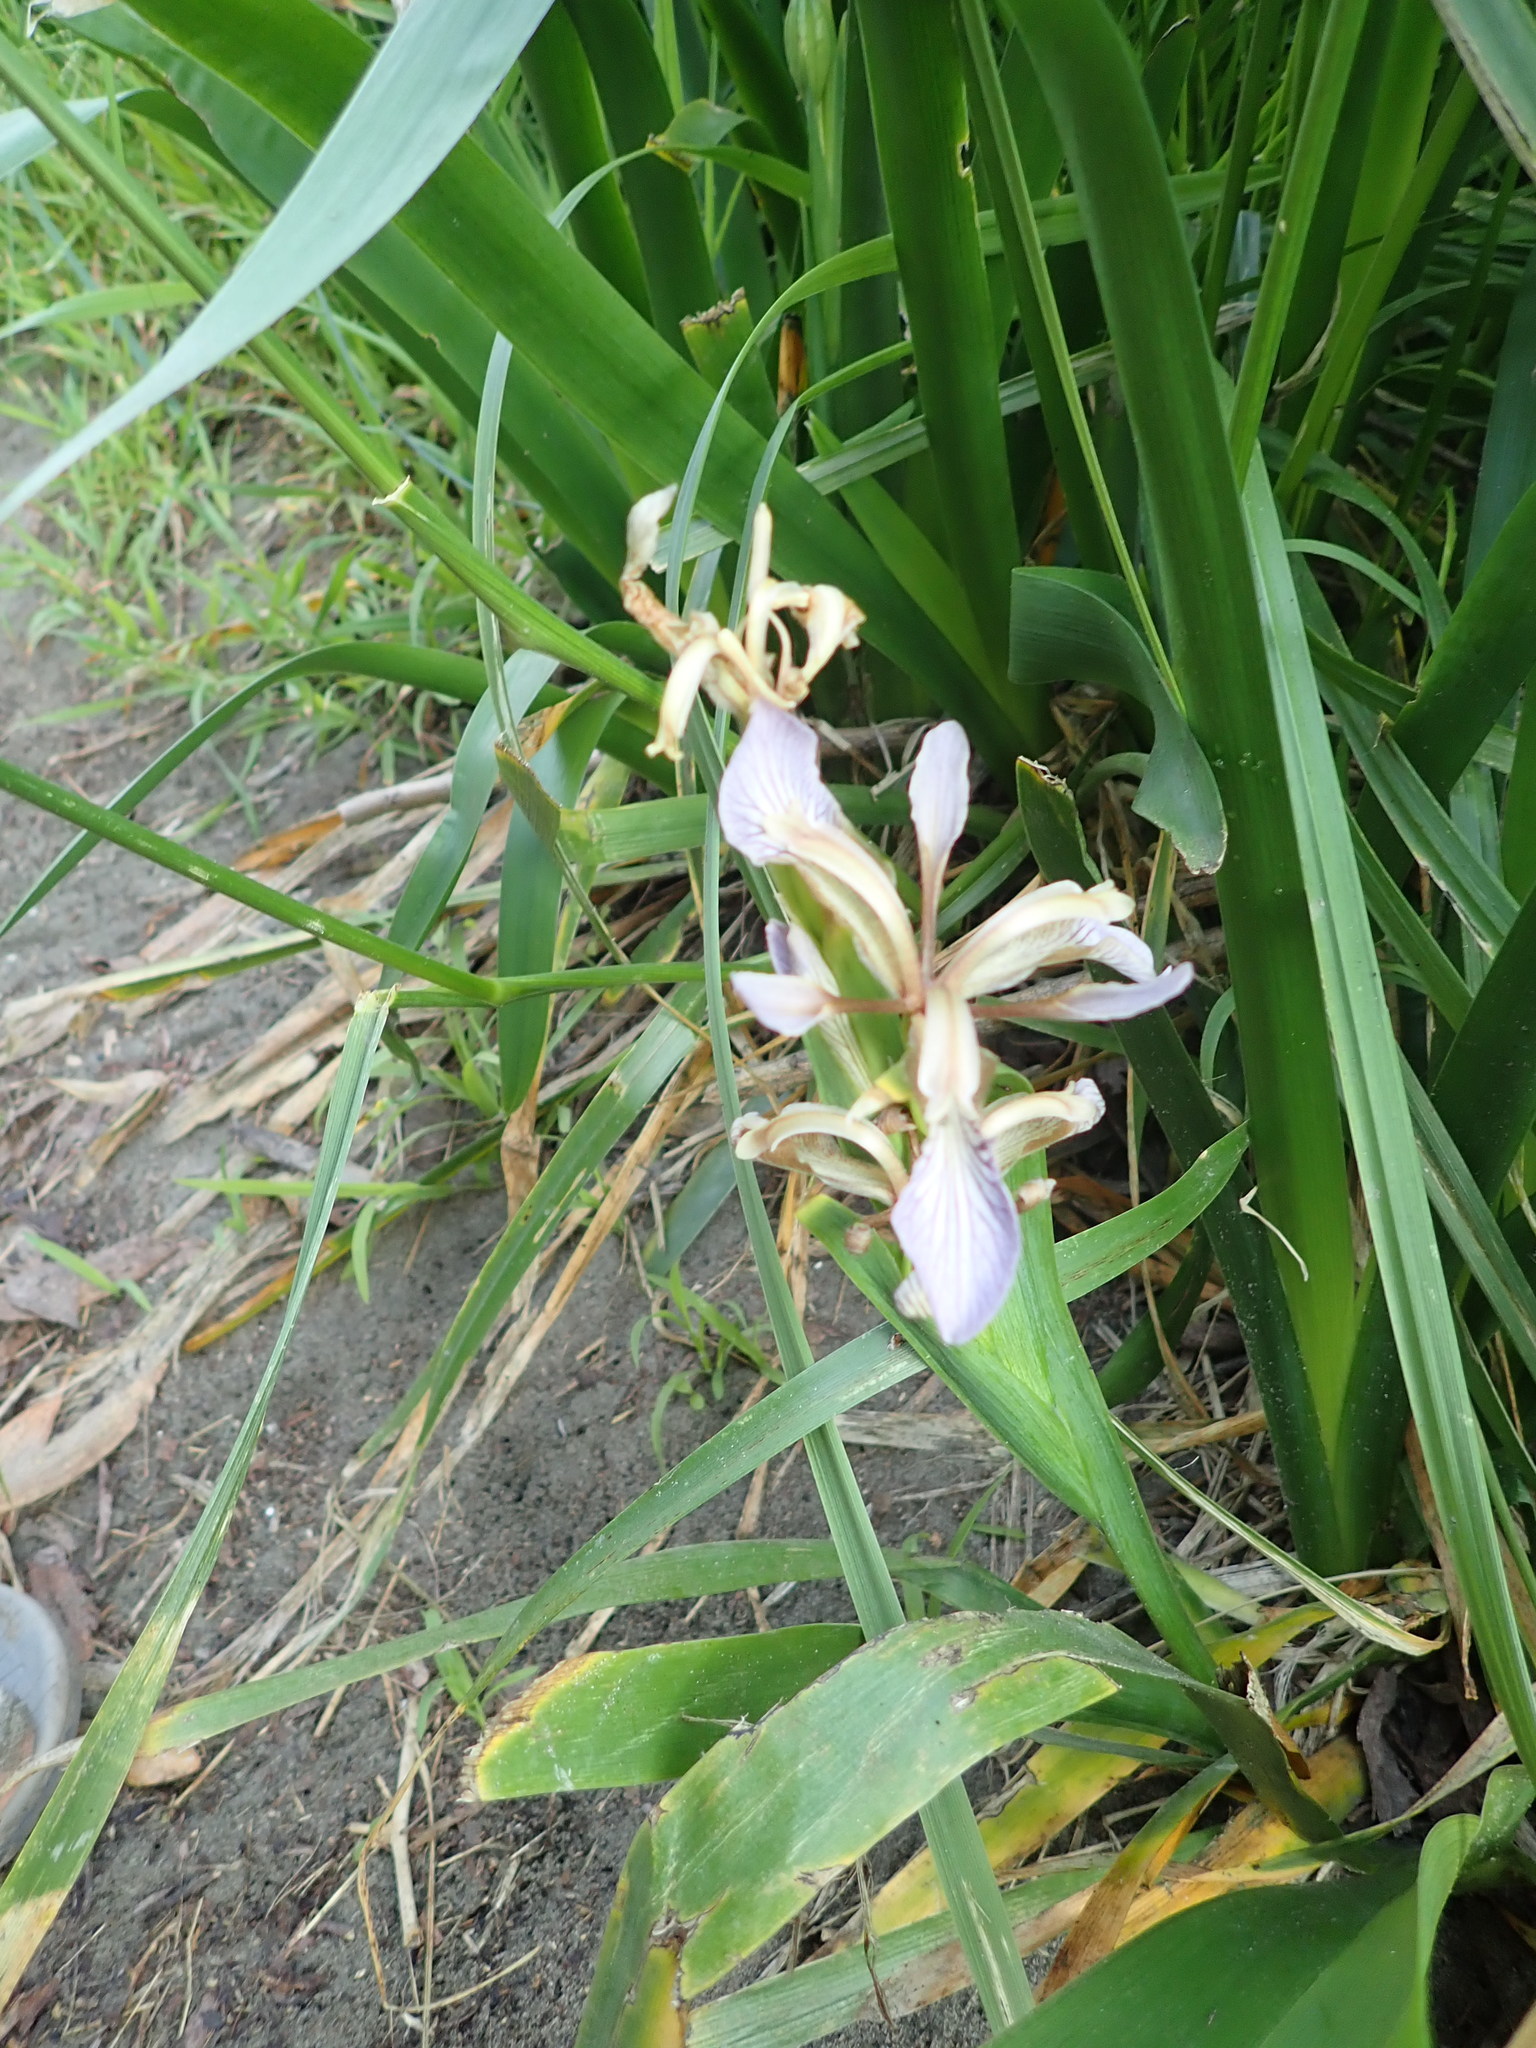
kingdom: Plantae
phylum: Tracheophyta
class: Liliopsida
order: Asparagales
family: Iridaceae
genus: Iris
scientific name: Iris foetidissima
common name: Stinking iris
